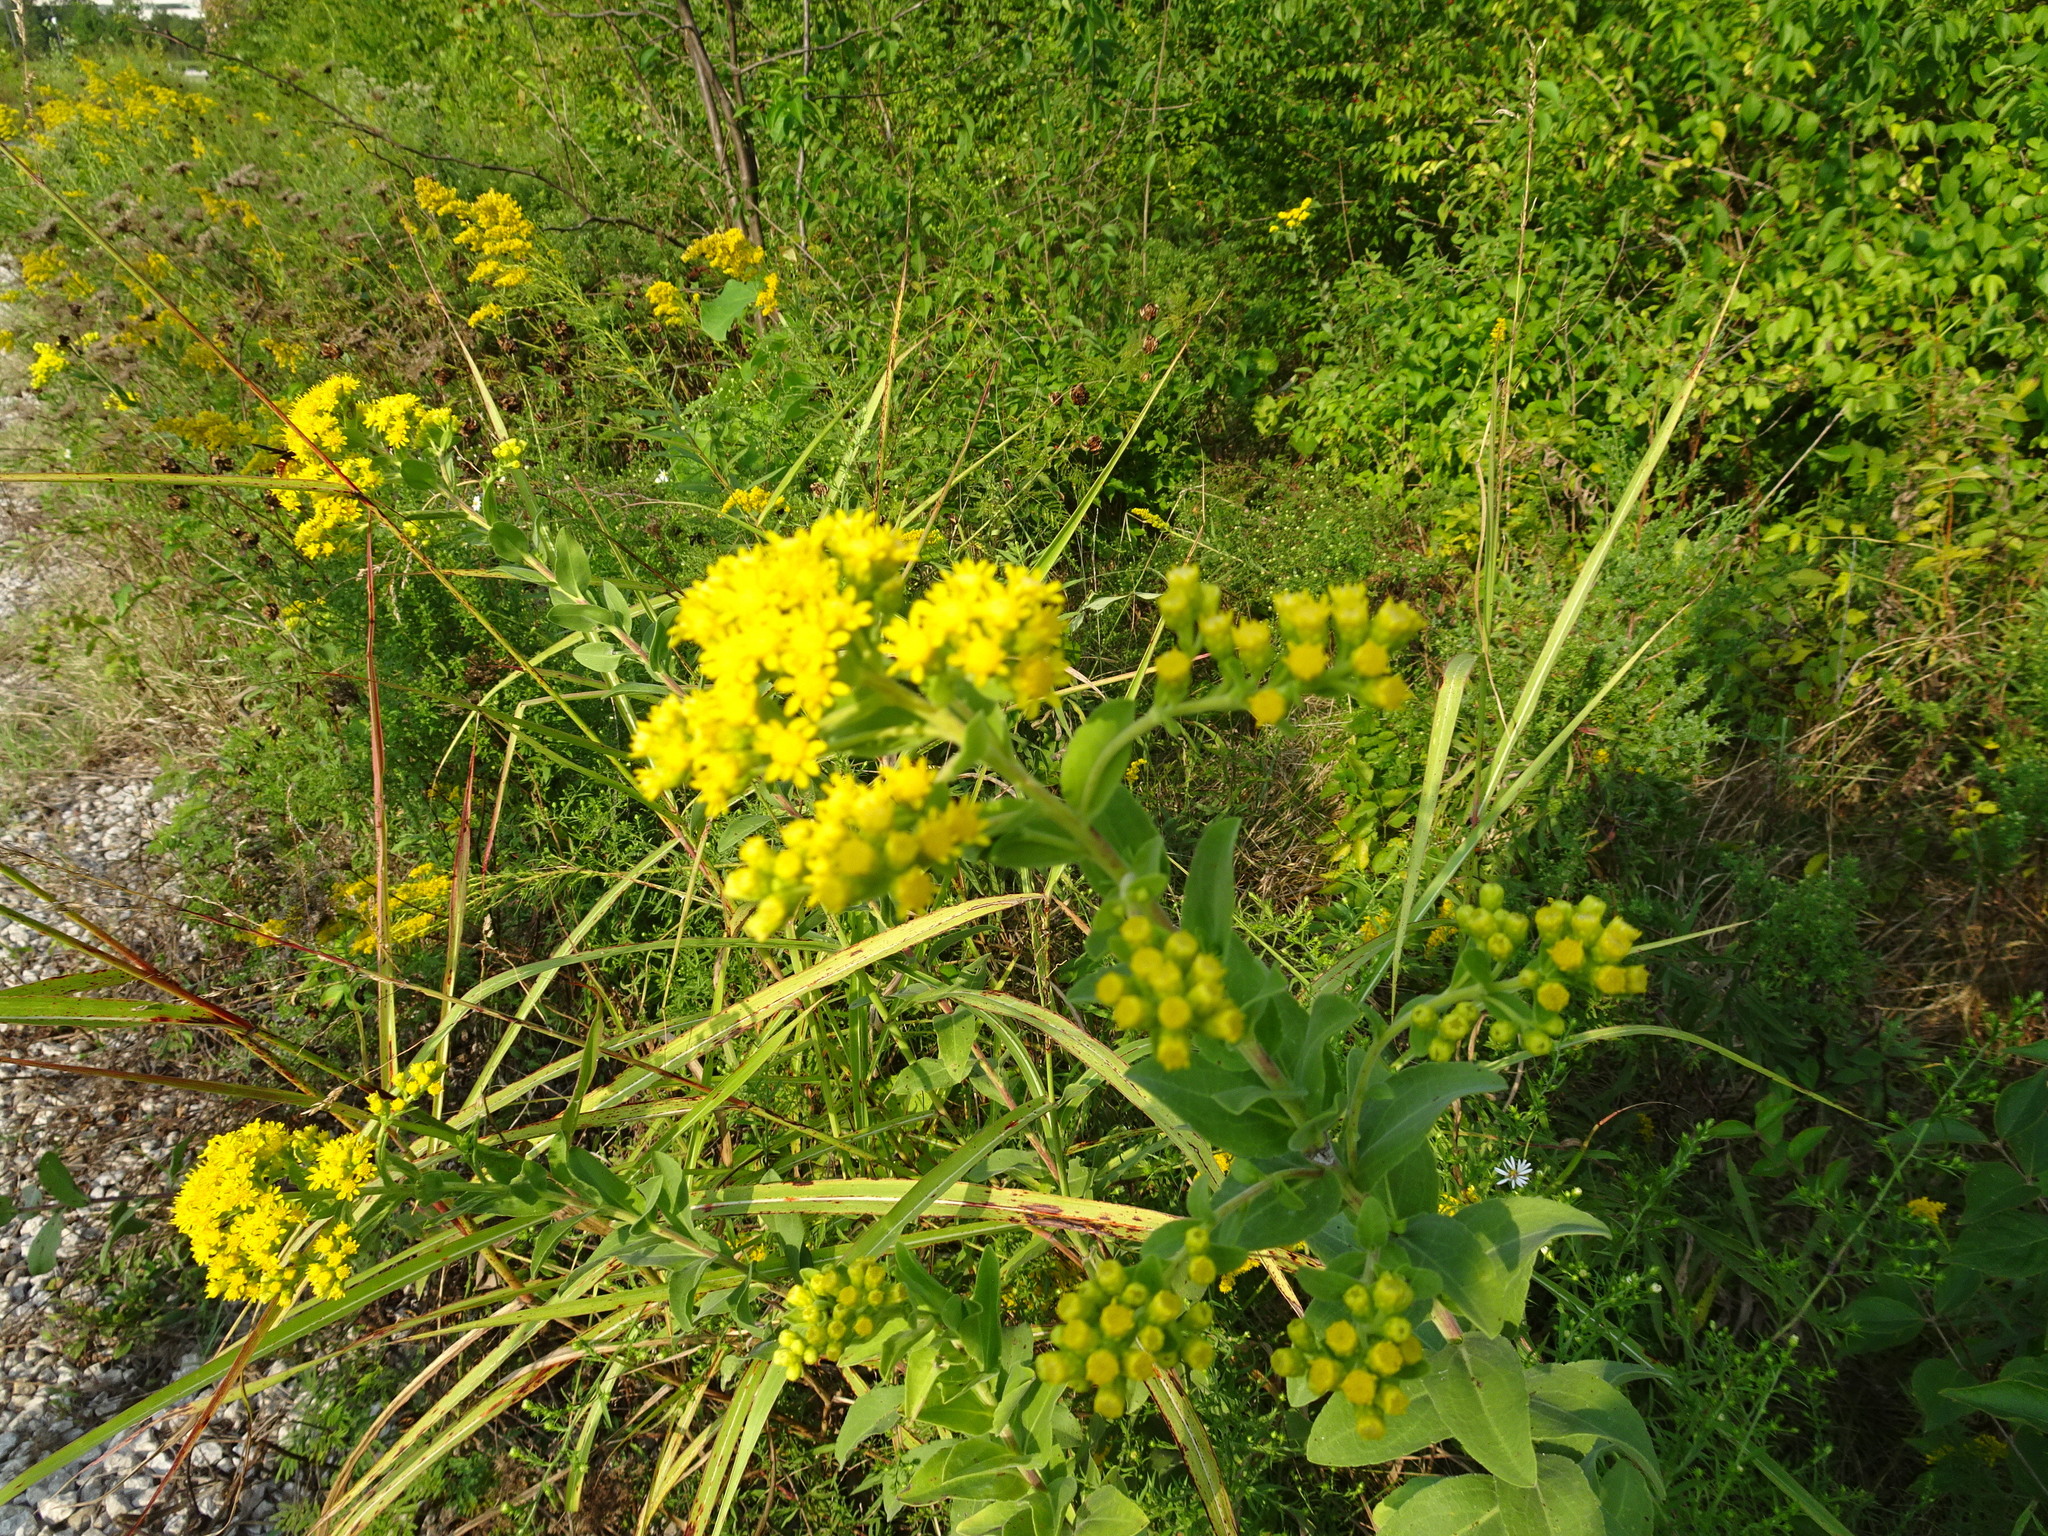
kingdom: Plantae
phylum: Tracheophyta
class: Magnoliopsida
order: Asterales
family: Asteraceae
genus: Solidago
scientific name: Solidago rigida
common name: Rigid goldenrod
